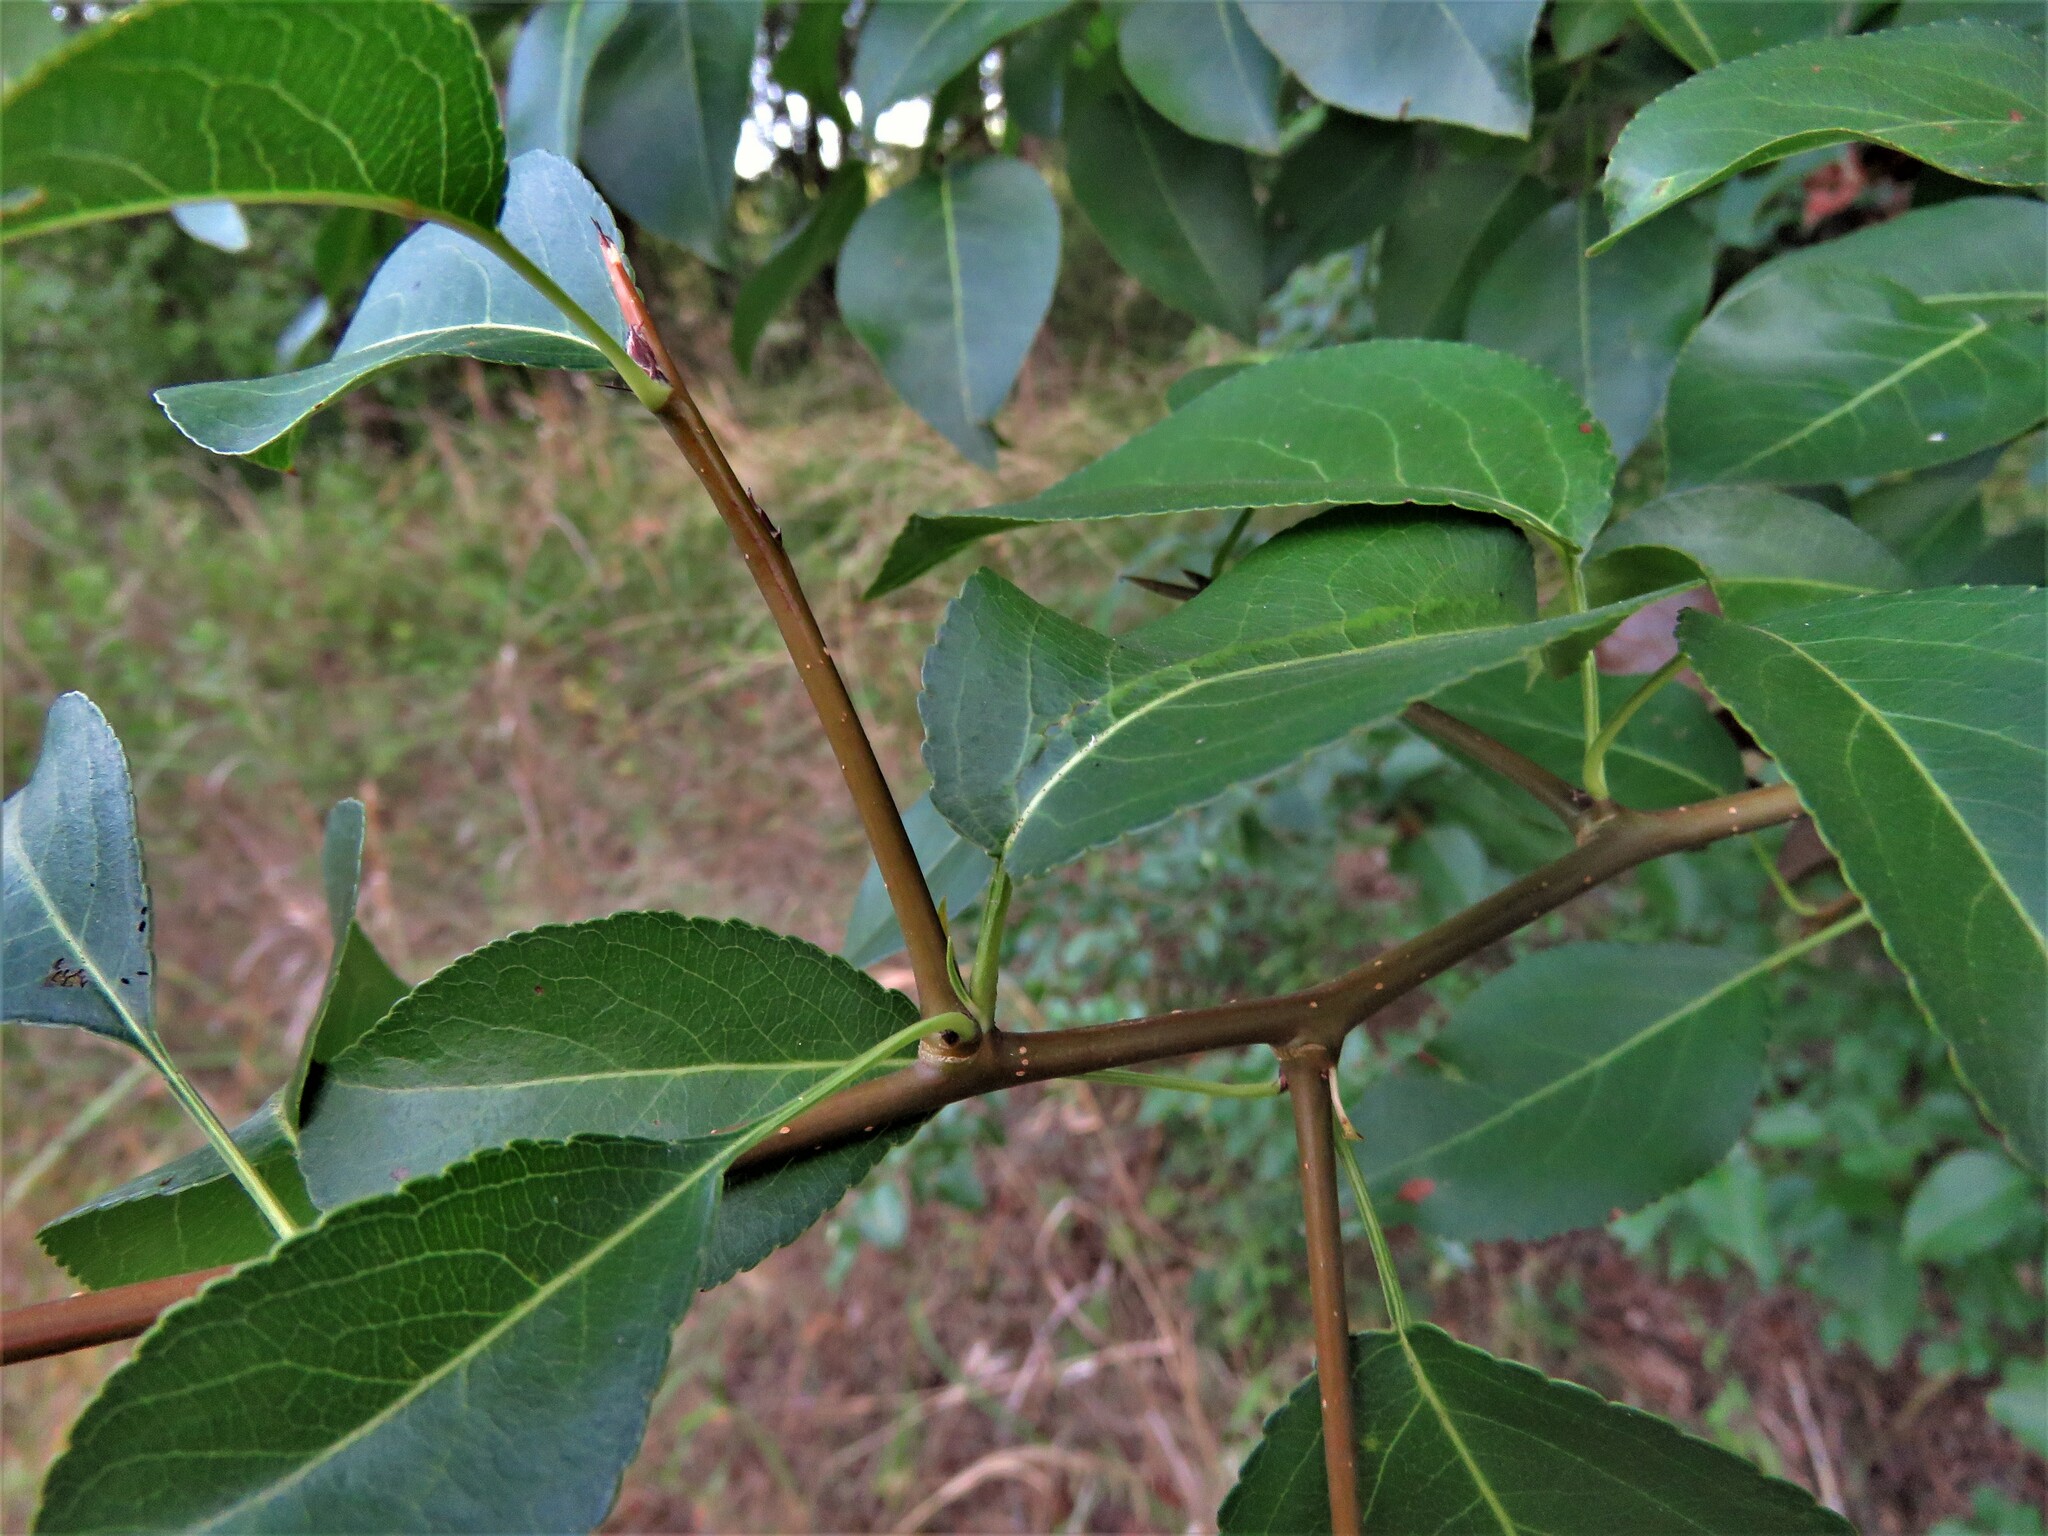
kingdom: Plantae
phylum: Tracheophyta
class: Magnoliopsida
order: Rosales
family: Rosaceae
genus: Pyrus
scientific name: Pyrus calleryana
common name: Callery pear
